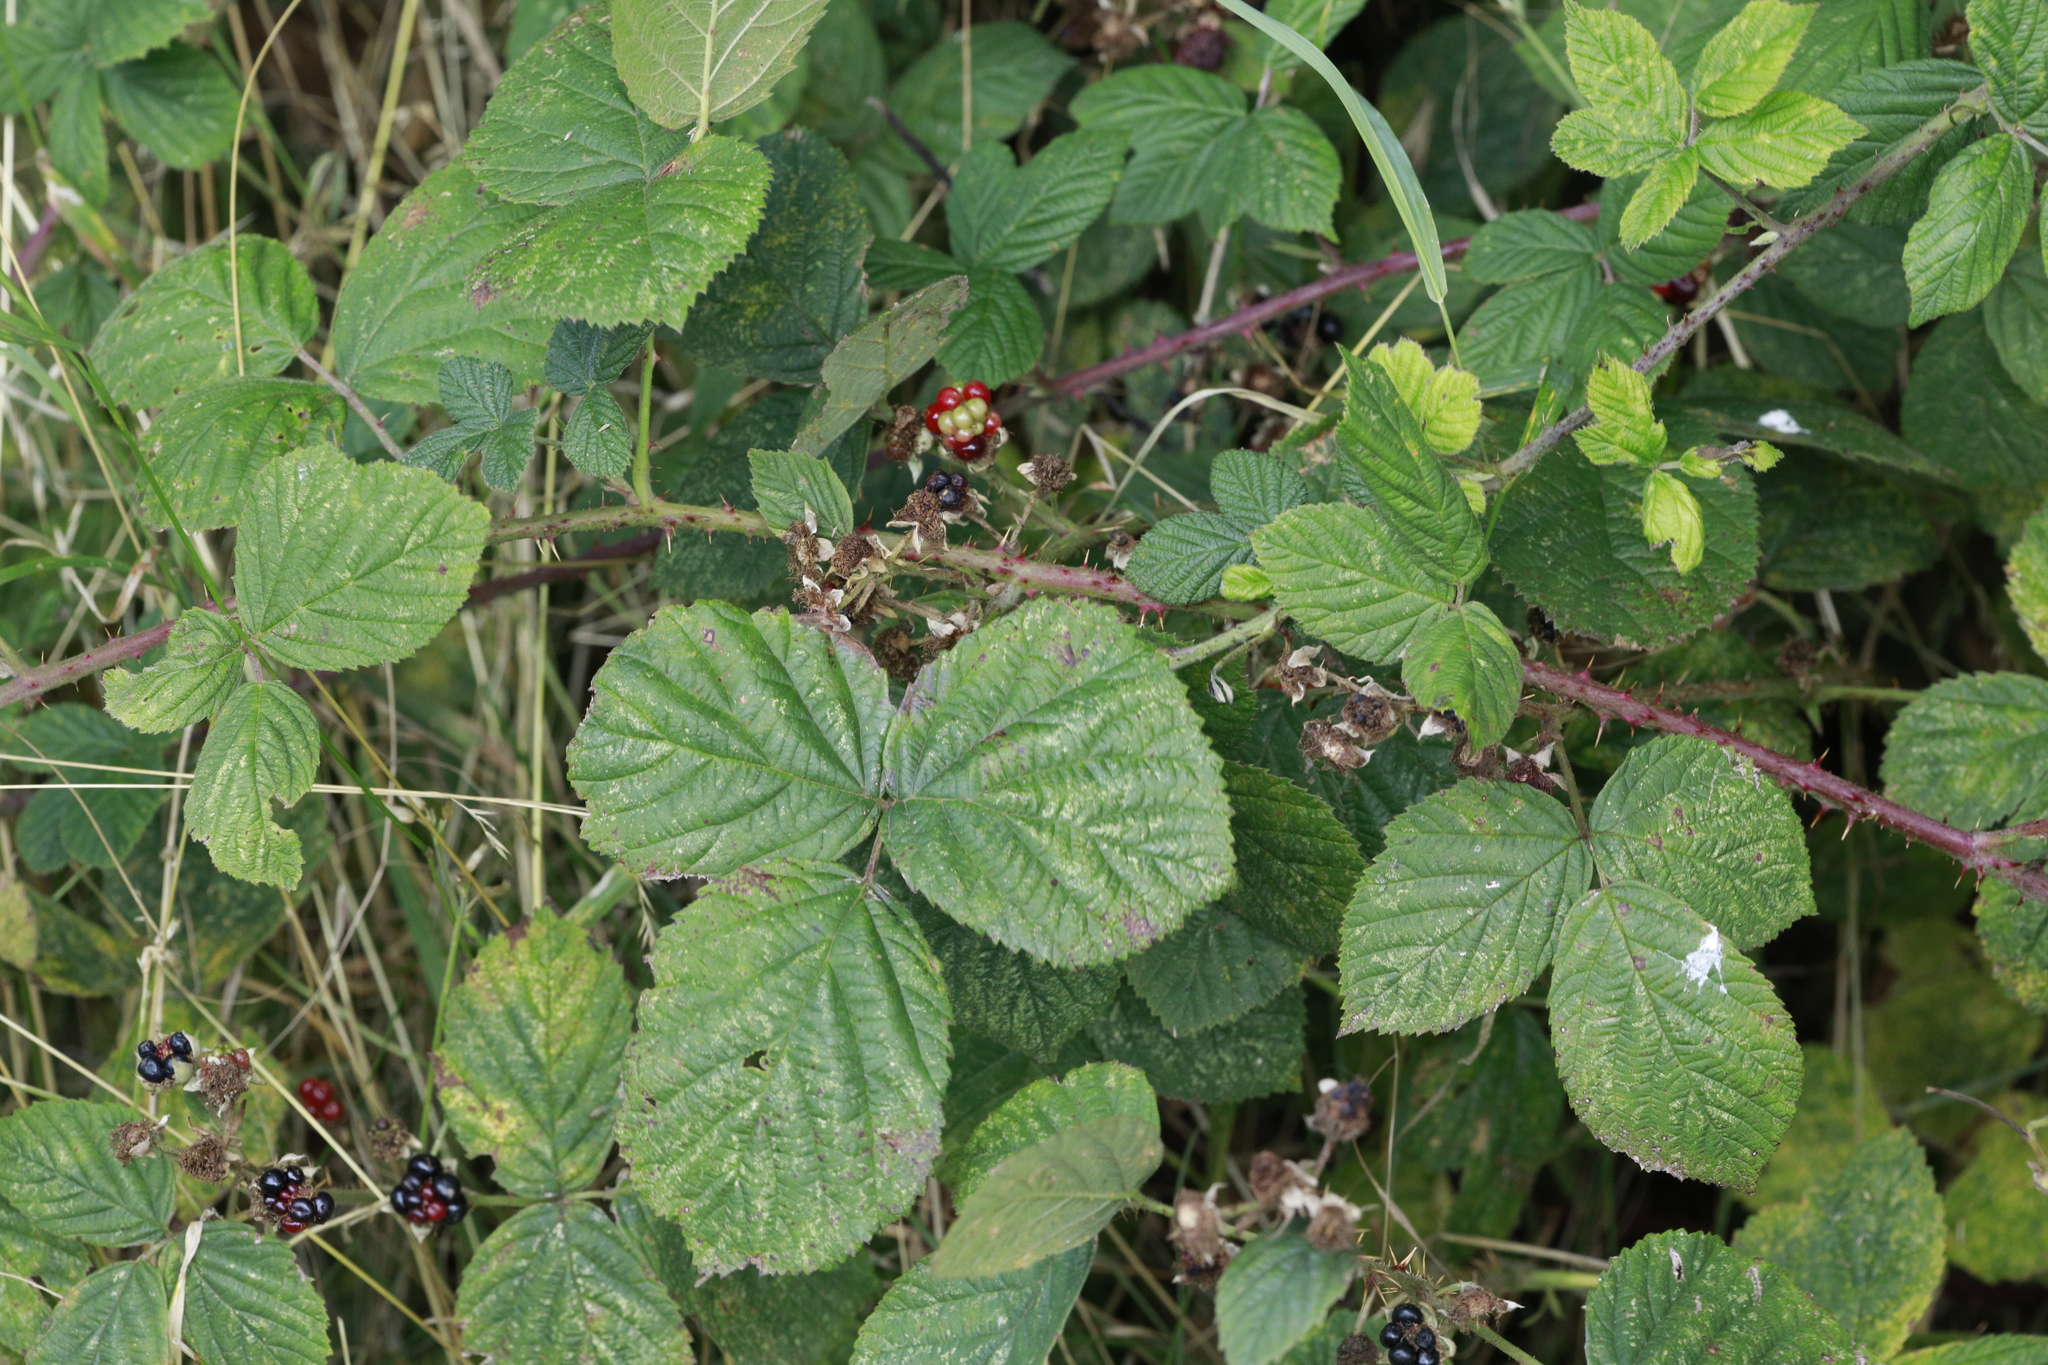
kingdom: Plantae
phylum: Tracheophyta
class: Magnoliopsida
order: Rosales
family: Rosaceae
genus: Rubus
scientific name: Rubus horrefactus
